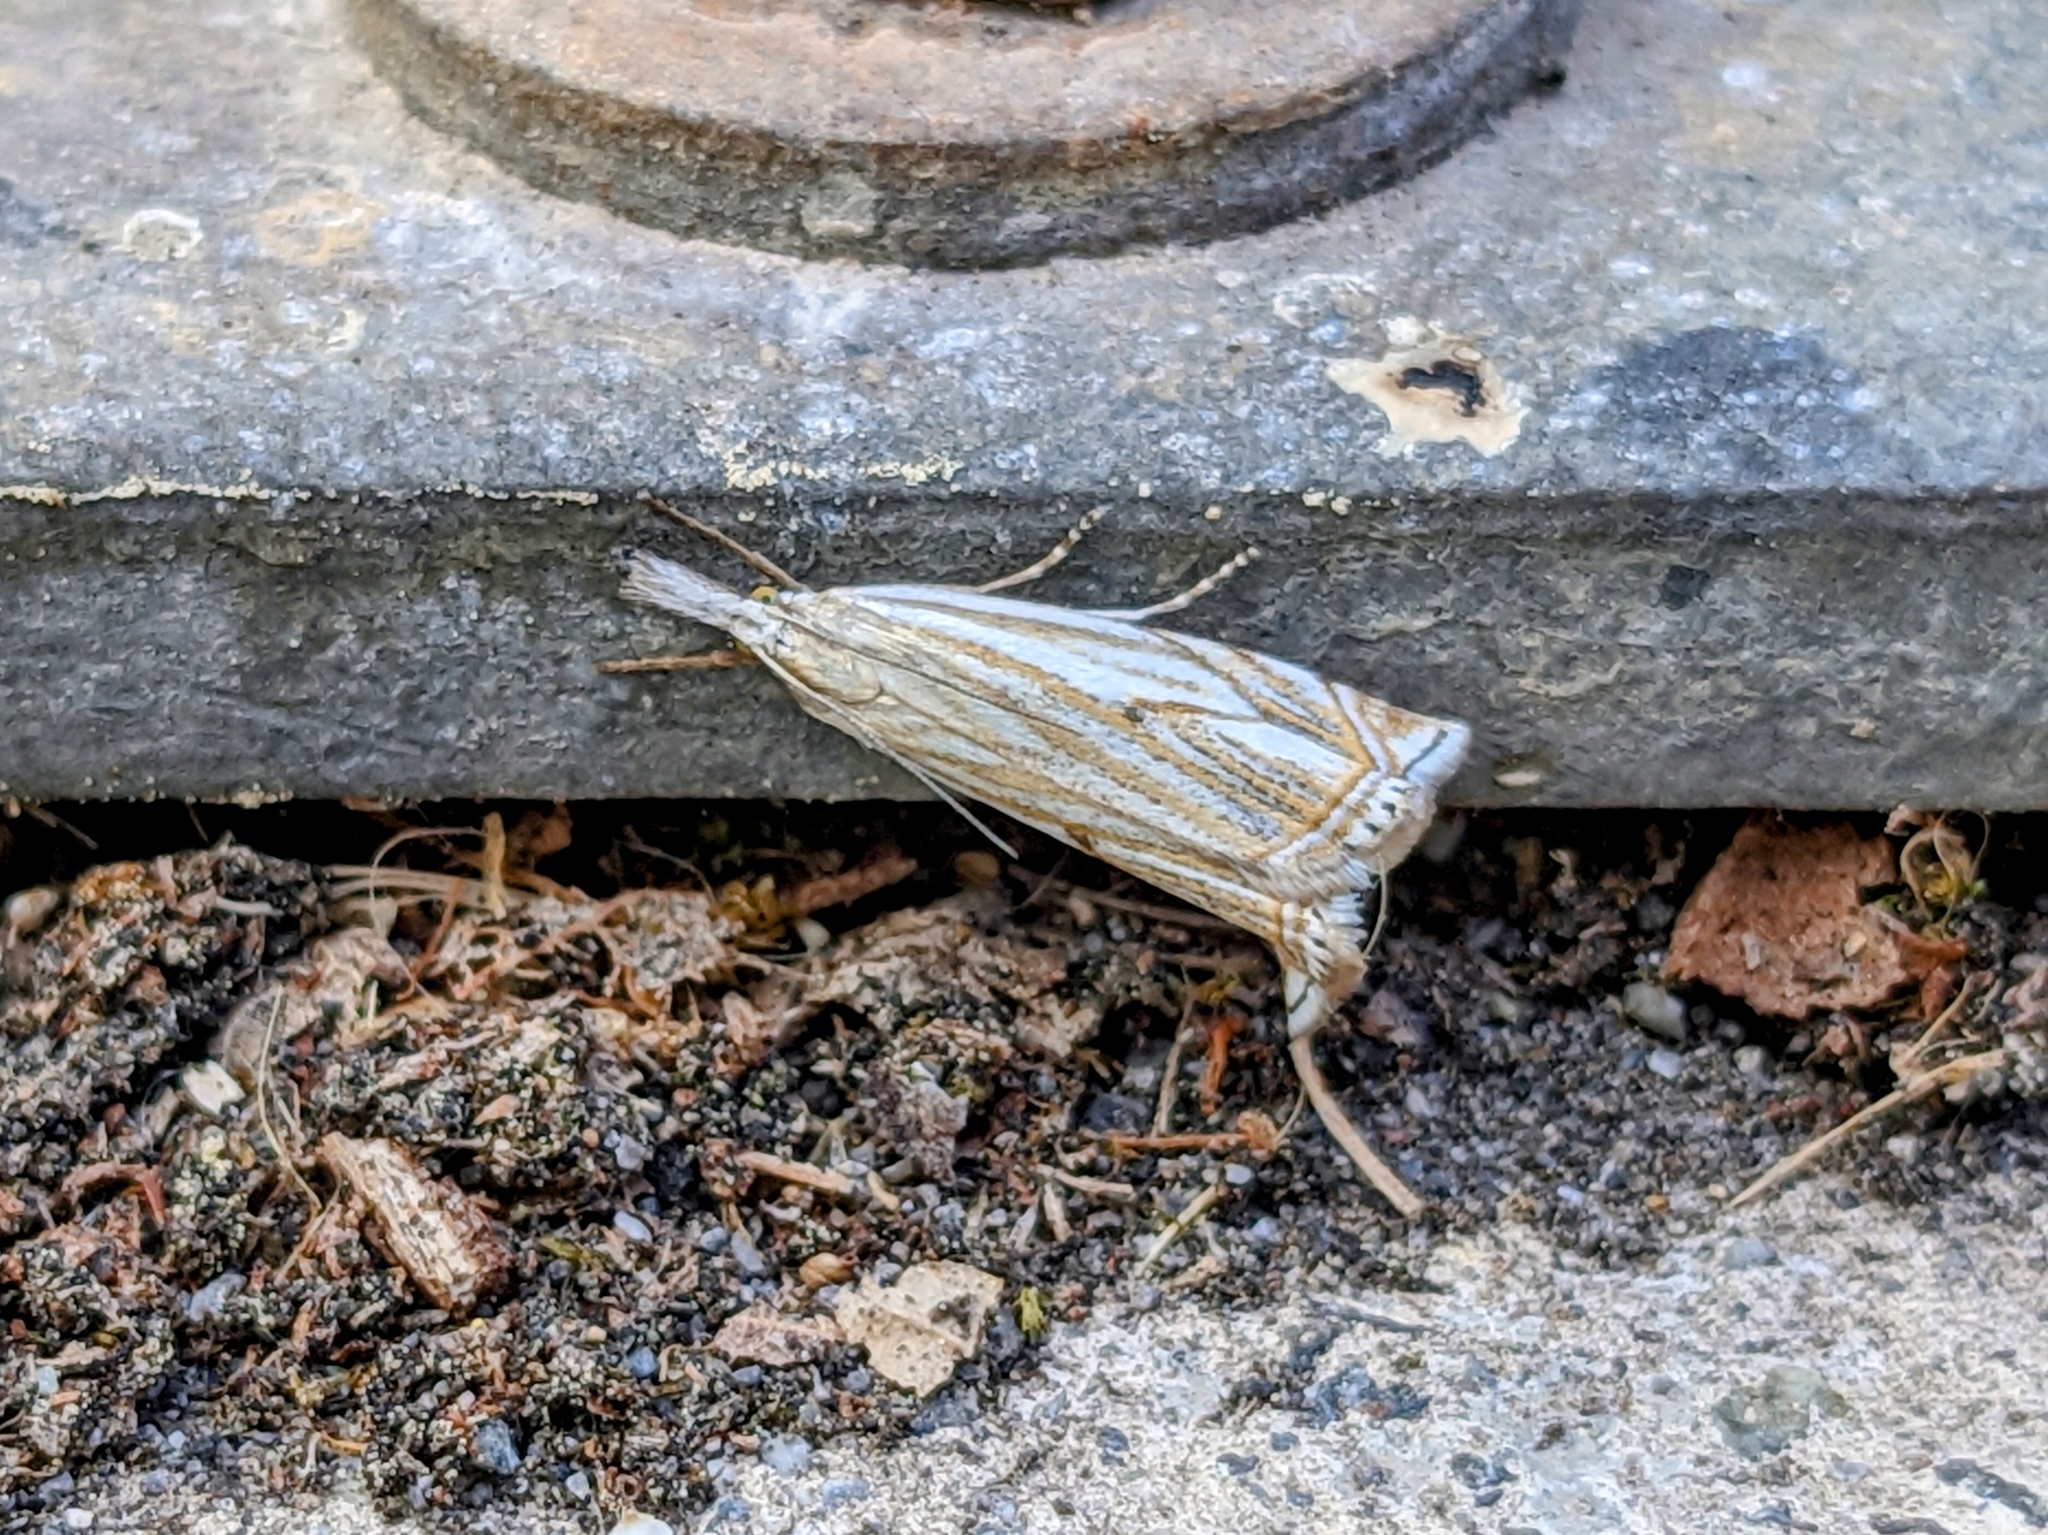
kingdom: Animalia
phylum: Arthropoda
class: Insecta
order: Lepidoptera
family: Crambidae
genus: Crambus
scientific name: Crambus nemorella
